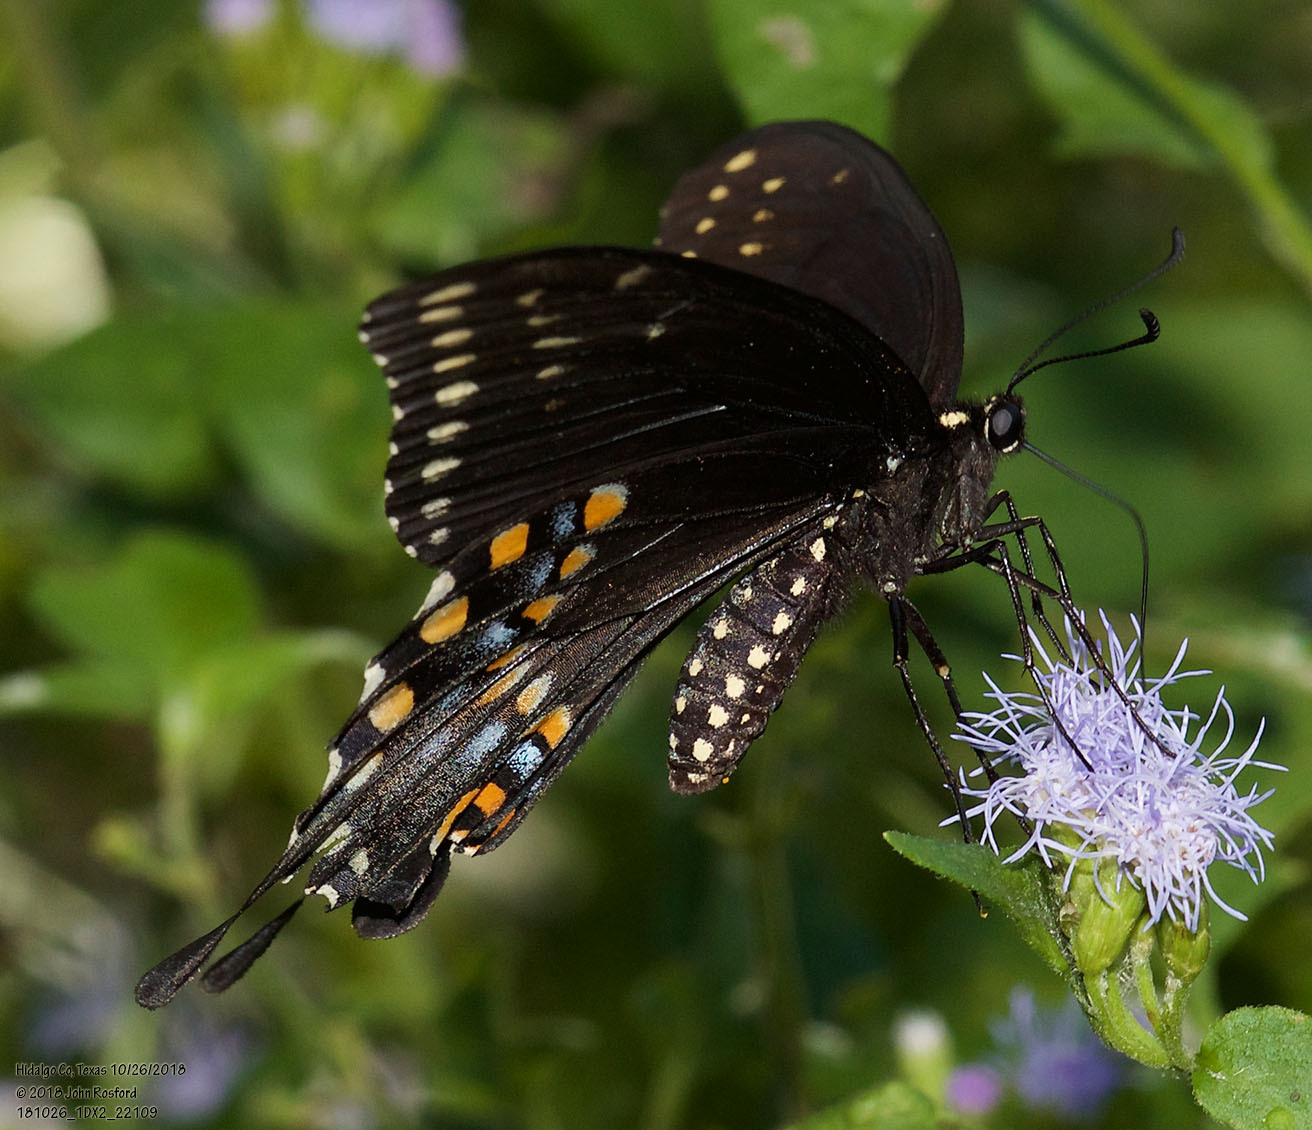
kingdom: Animalia
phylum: Arthropoda
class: Insecta
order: Lepidoptera
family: Papilionidae
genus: Papilio
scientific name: Papilio polyxenes
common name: Black swallowtail
